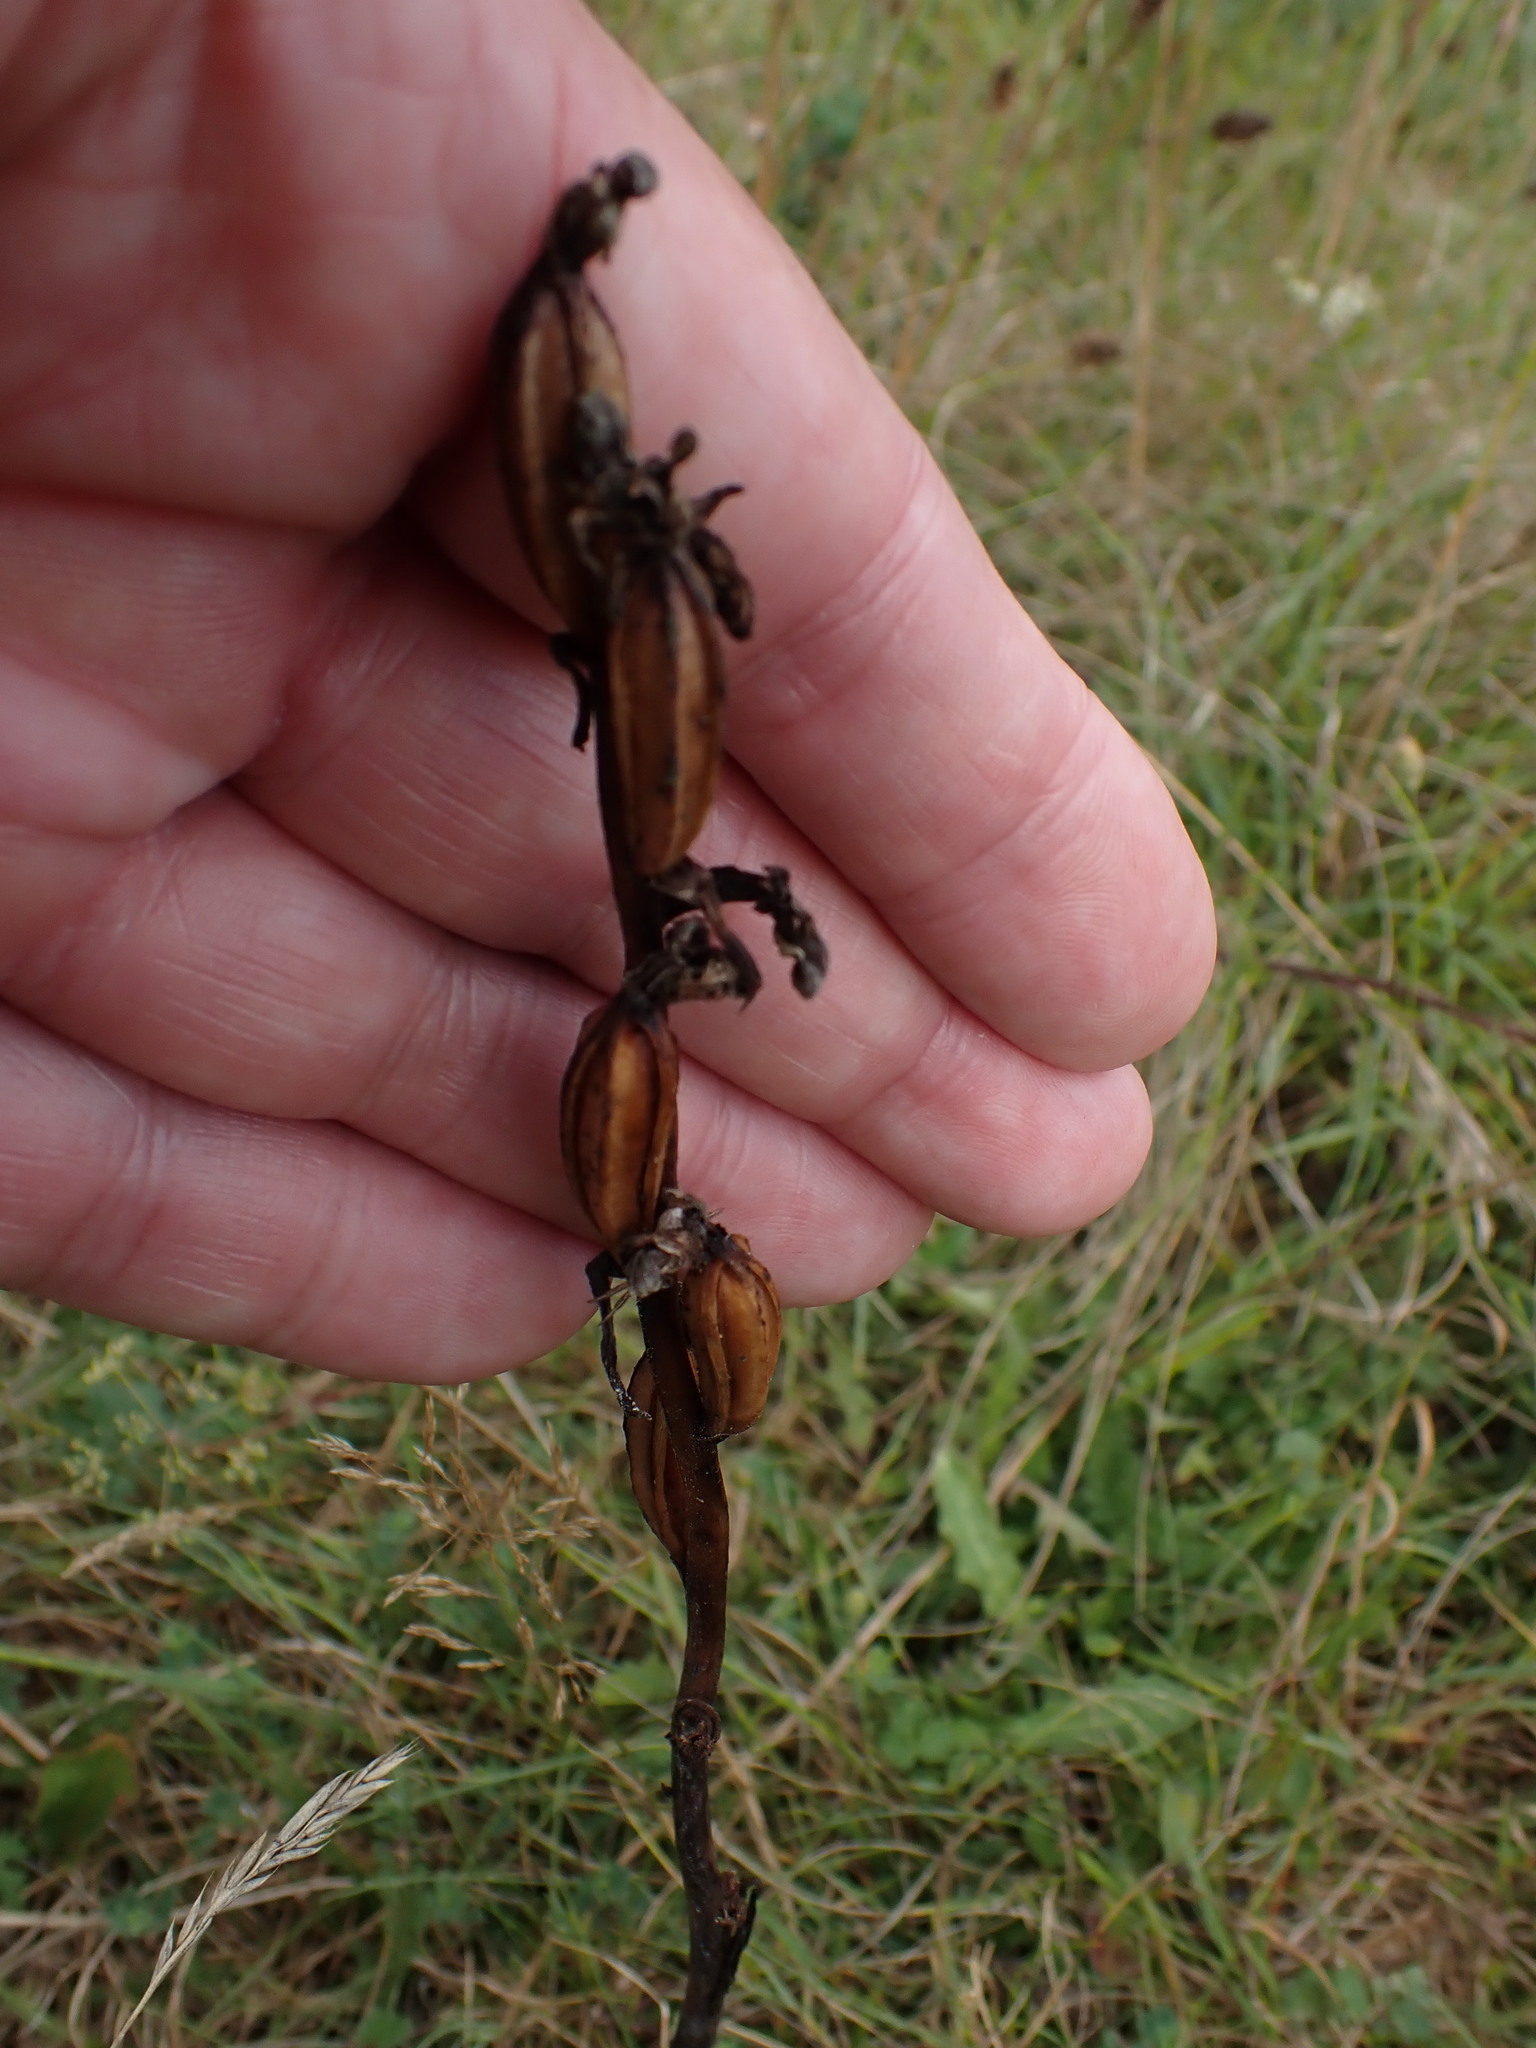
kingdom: Plantae
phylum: Tracheophyta
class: Liliopsida
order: Asparagales
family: Orchidaceae
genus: Ophrys
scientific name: Ophrys apifera
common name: Bee orchid
